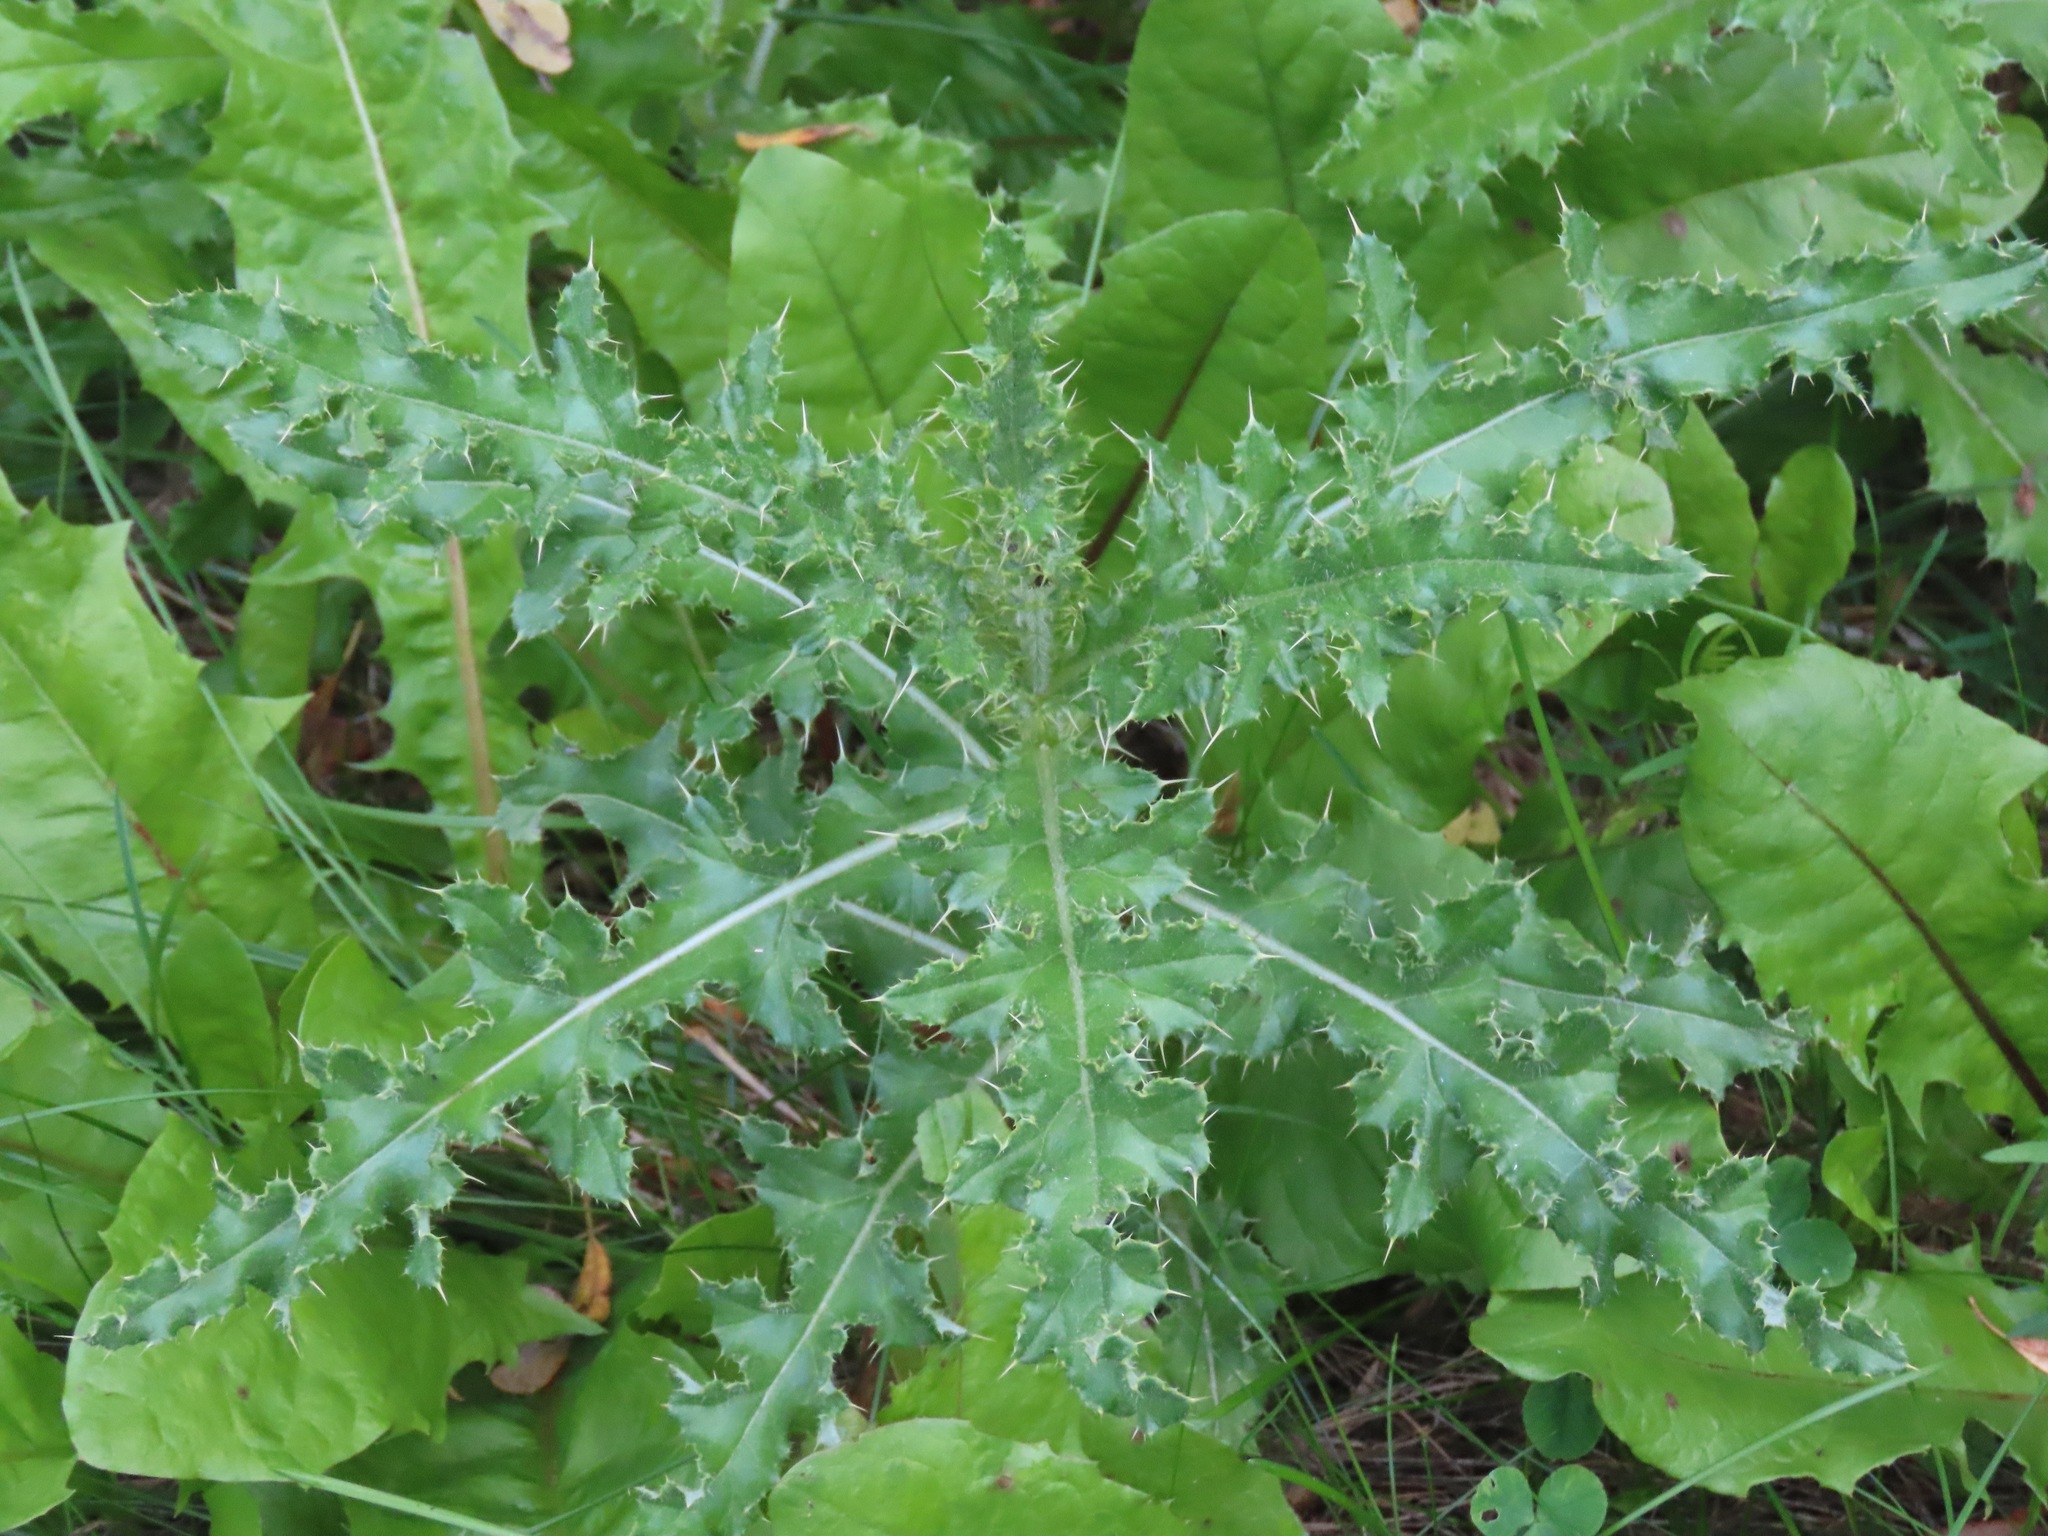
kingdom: Plantae
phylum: Tracheophyta
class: Magnoliopsida
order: Asterales
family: Asteraceae
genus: Cirsium
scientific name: Cirsium arvense
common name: Creeping thistle
